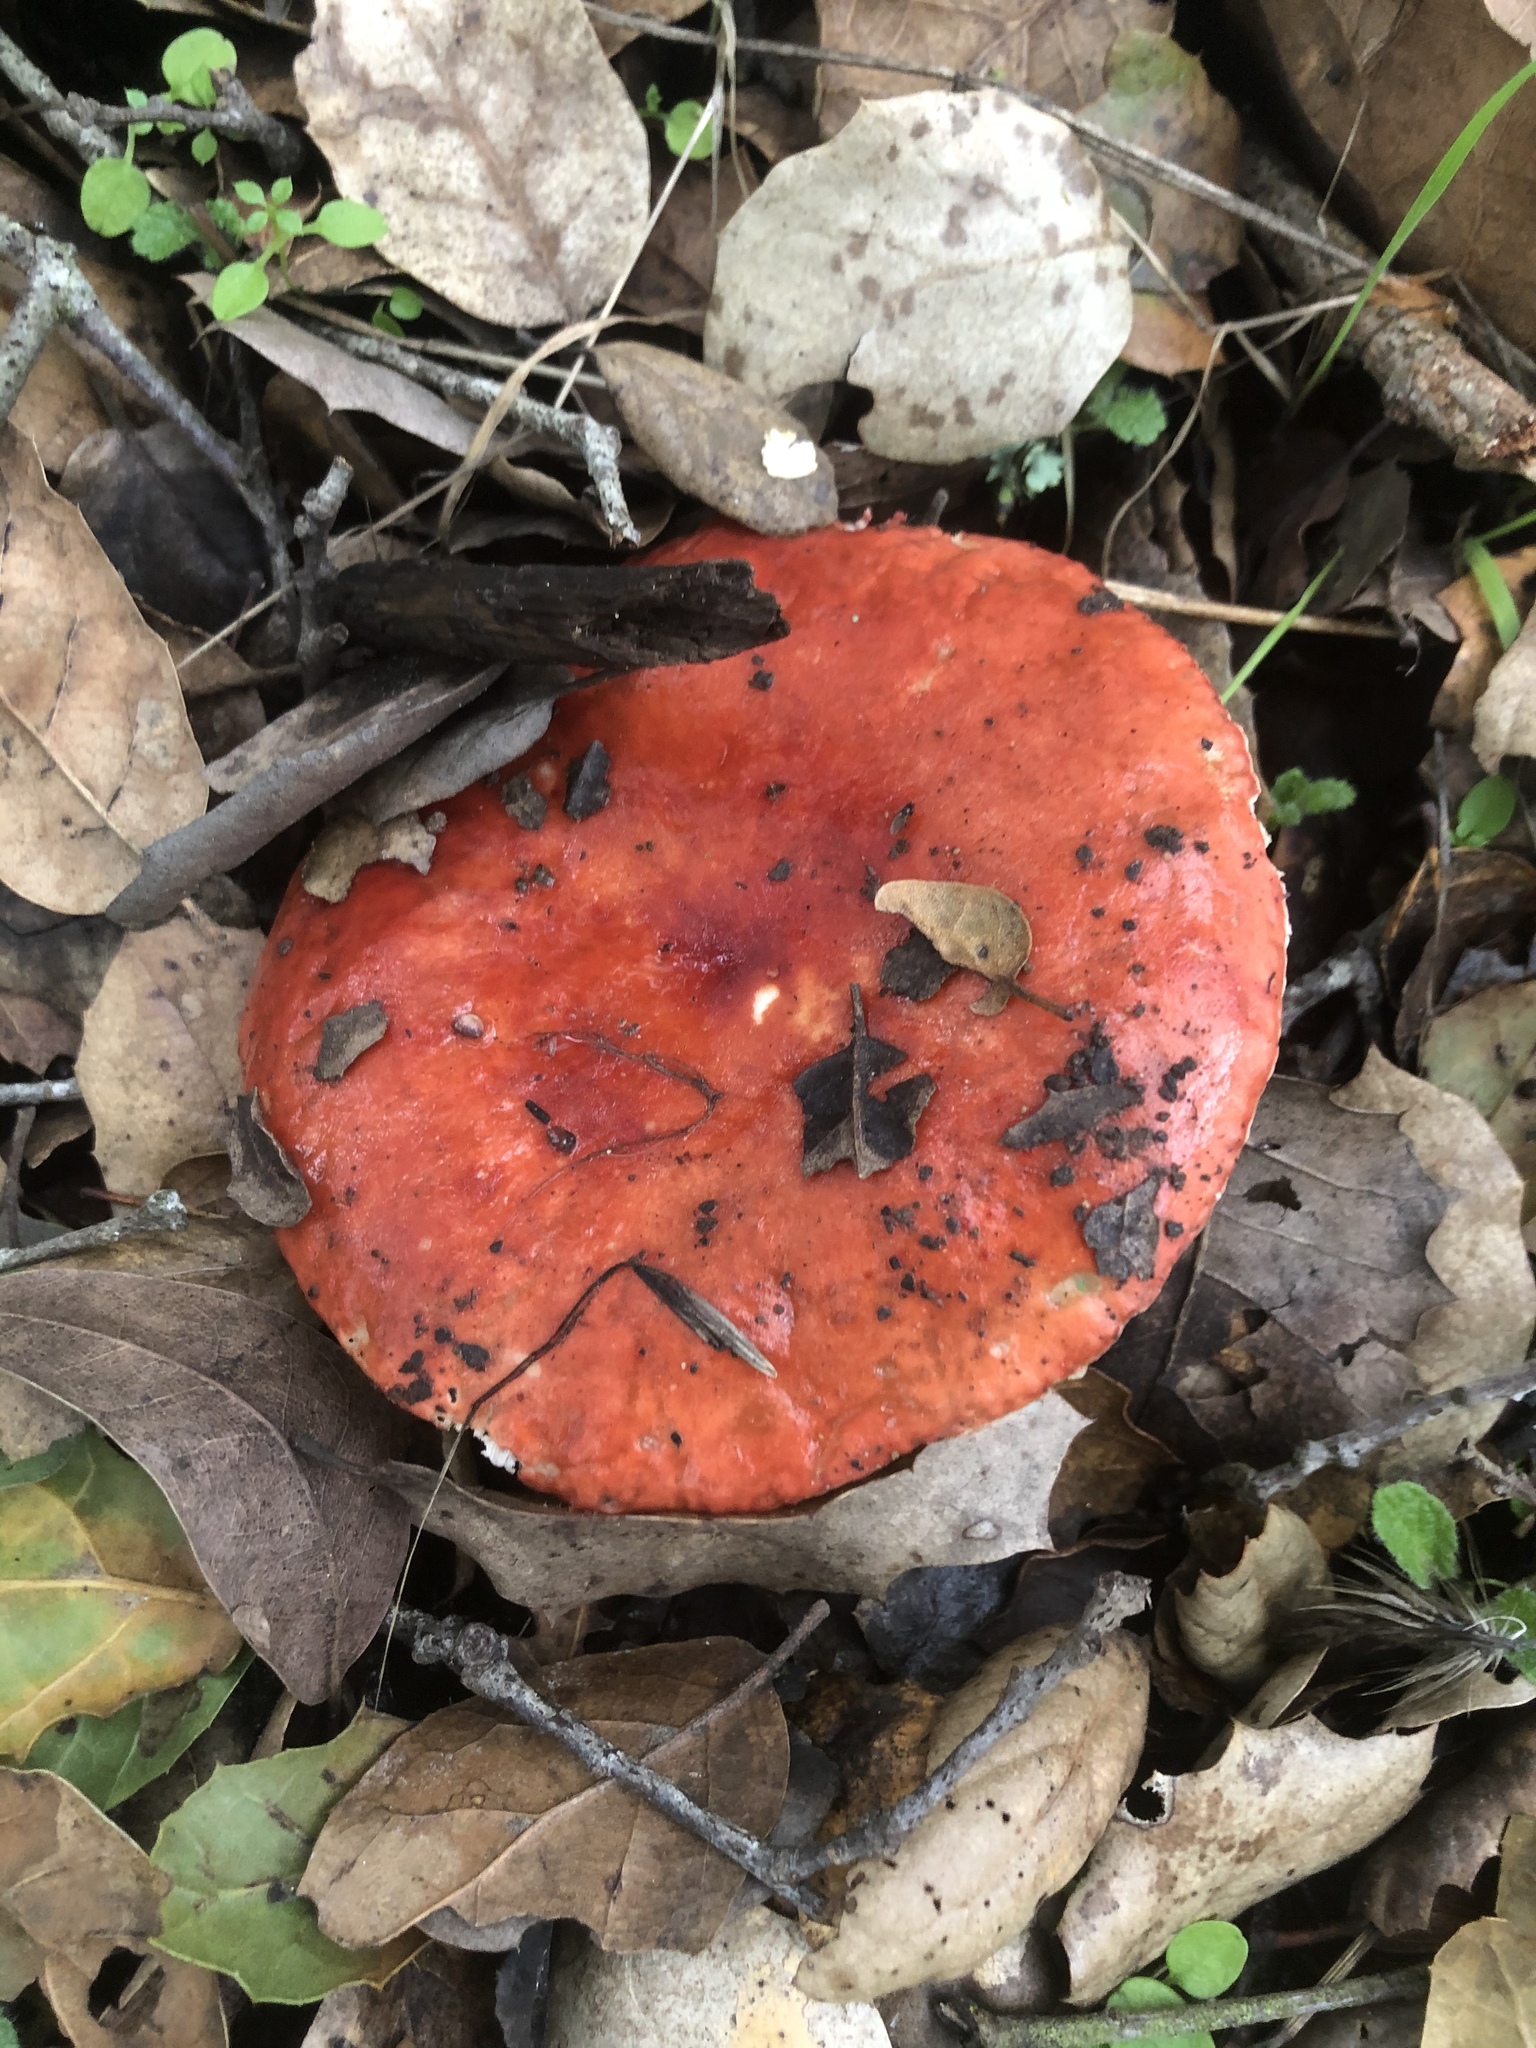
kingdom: Fungi
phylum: Basidiomycota
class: Agaricomycetes
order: Russulales
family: Russulaceae
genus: Russula
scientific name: Russula cremoricolor
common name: Winter russula
